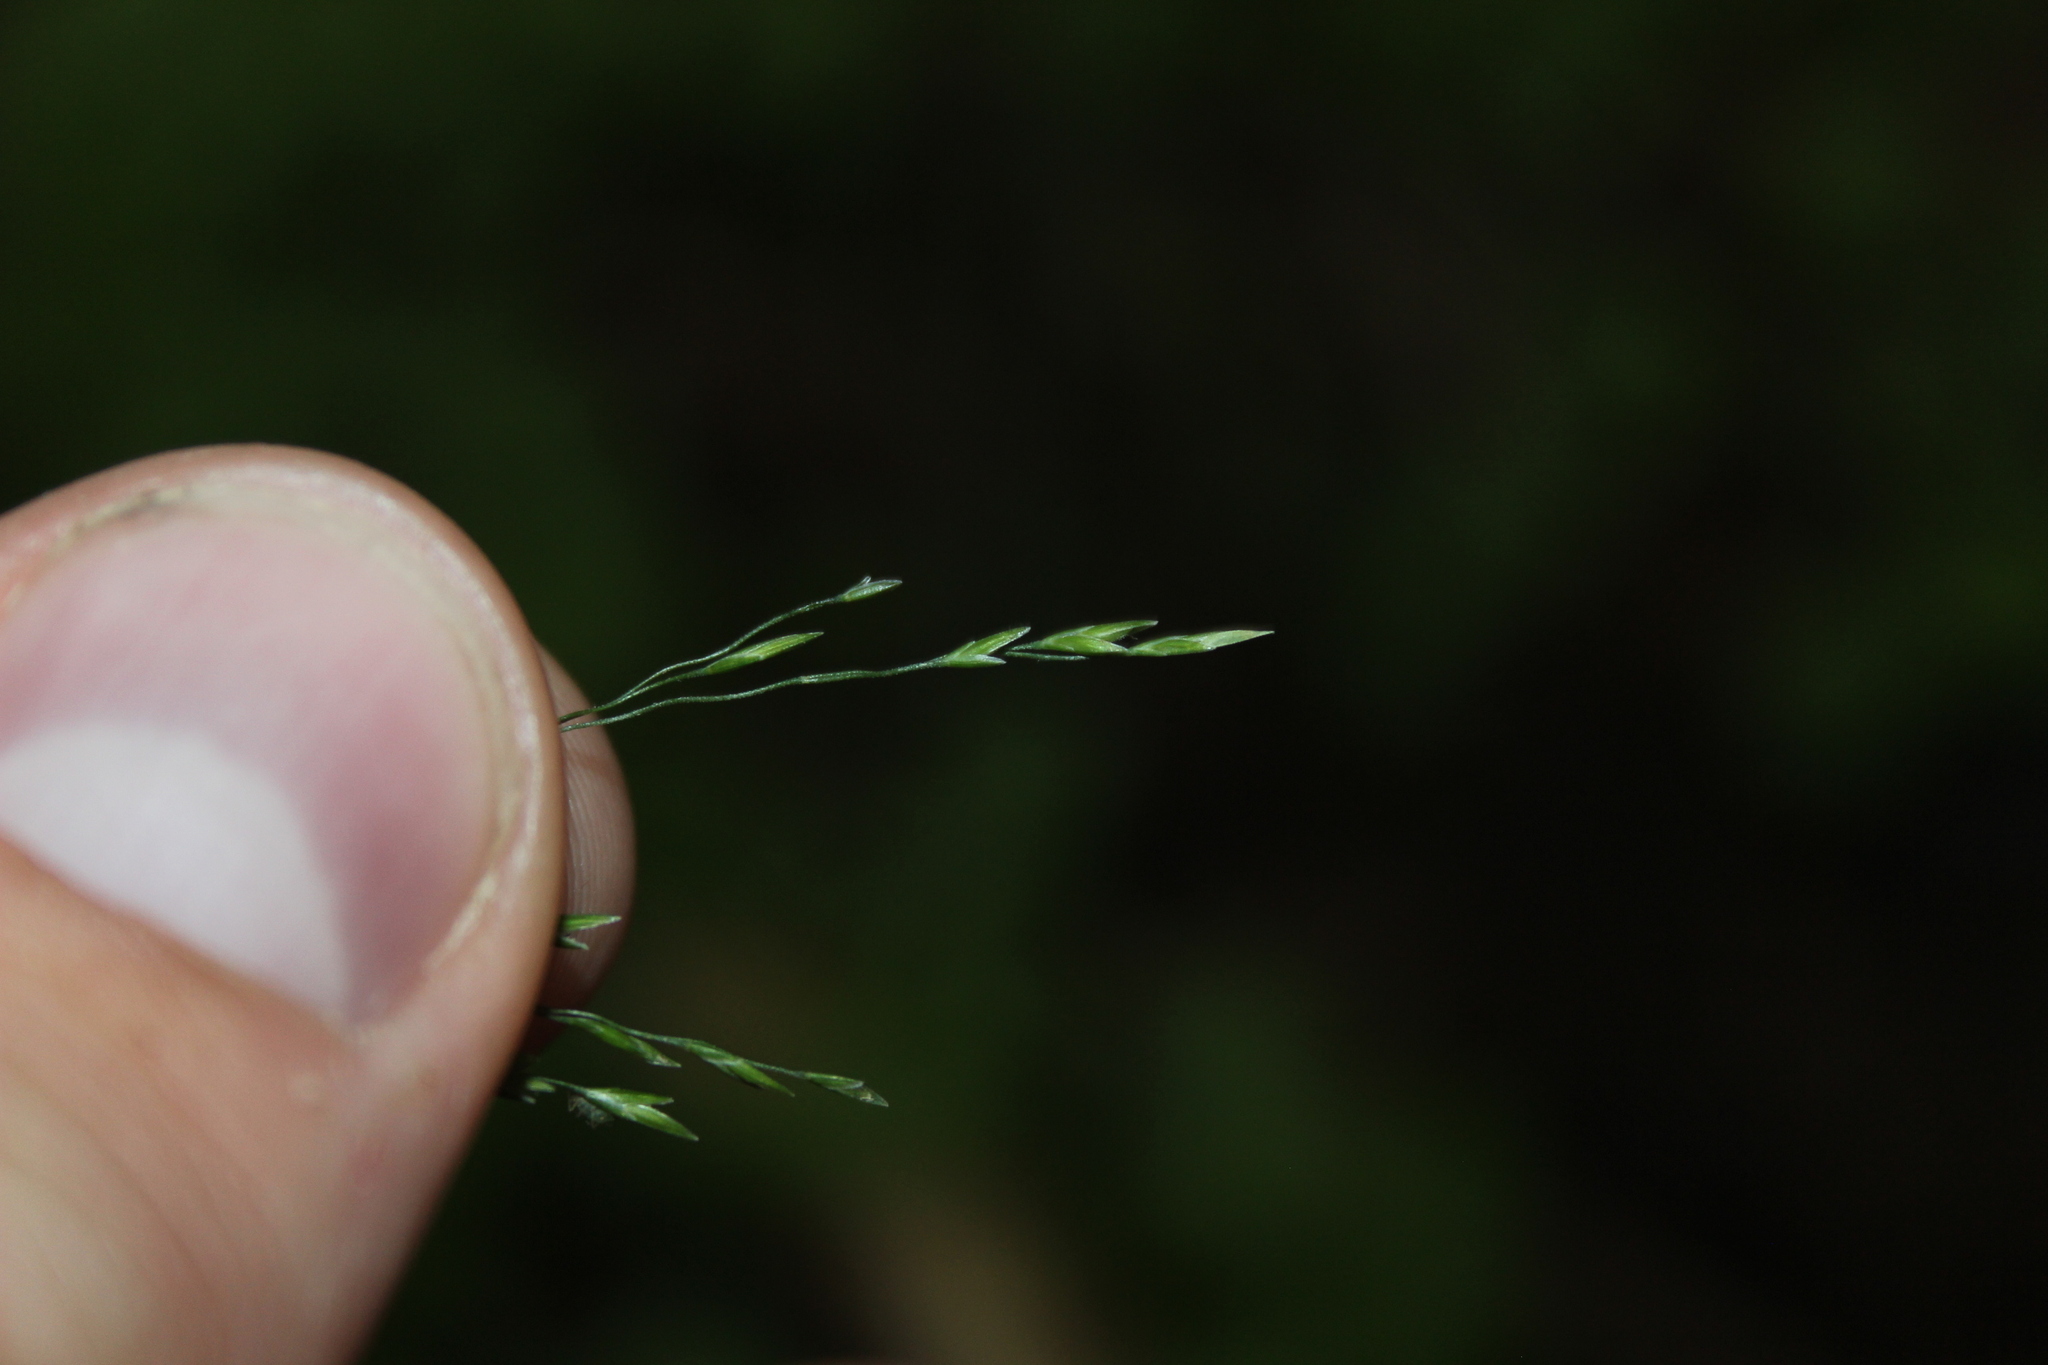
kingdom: Plantae
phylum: Tracheophyta
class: Liliopsida
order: Poales
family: Poaceae
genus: Poa
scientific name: Poa matthewsii
